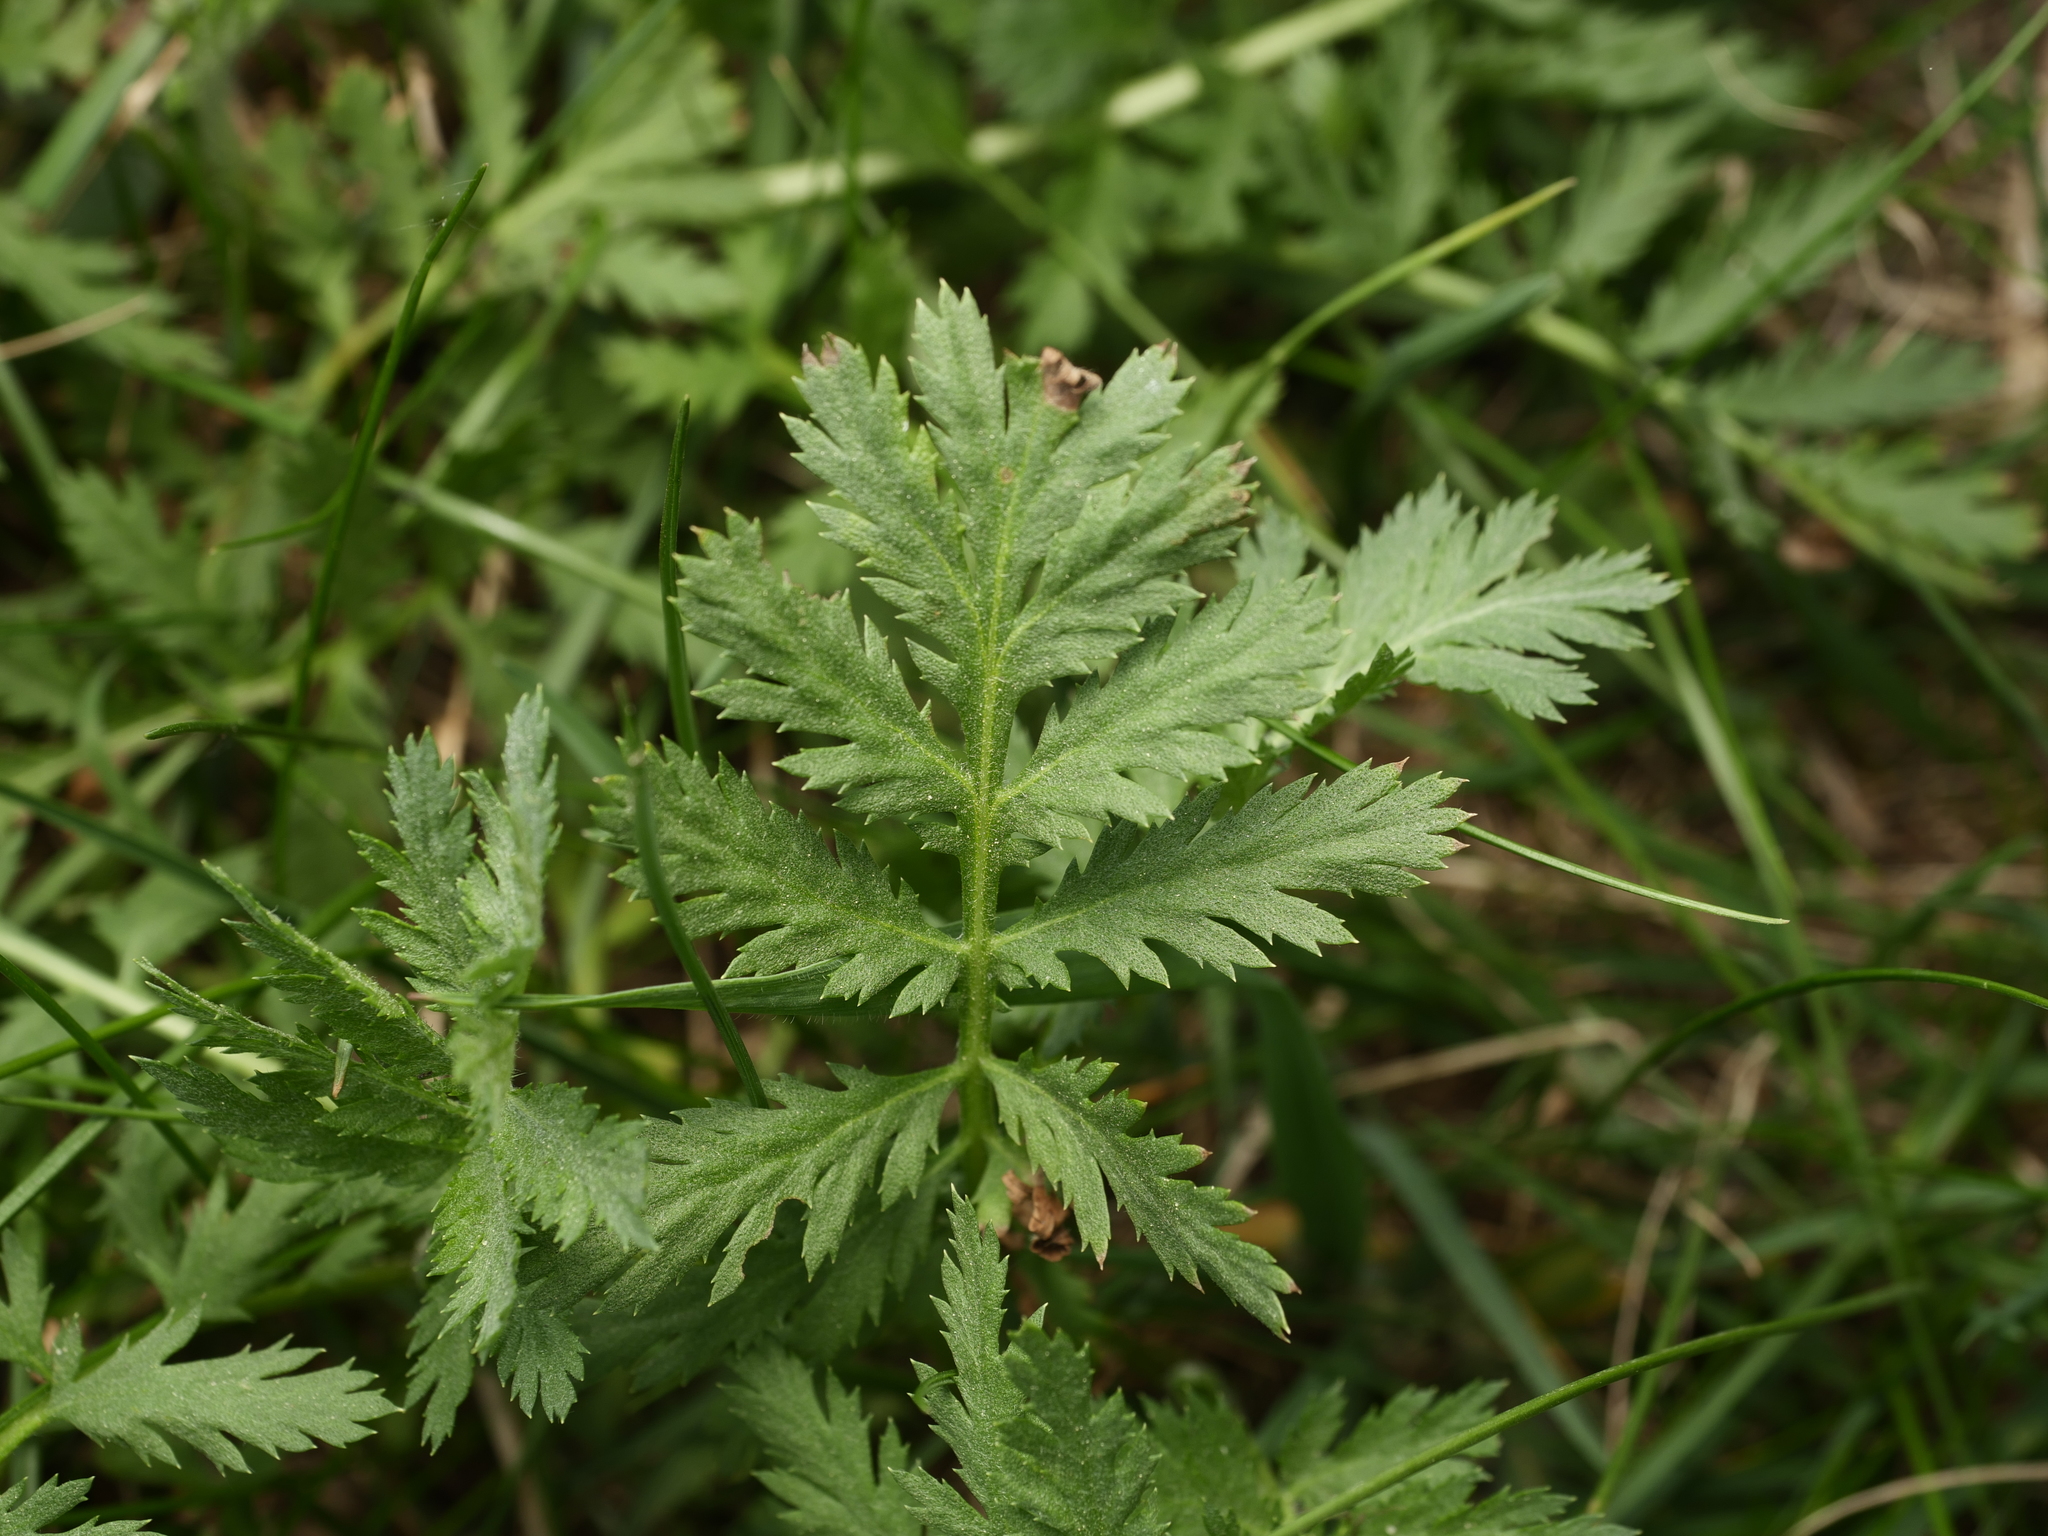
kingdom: Plantae
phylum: Tracheophyta
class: Magnoliopsida
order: Asterales
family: Asteraceae
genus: Tanacetum
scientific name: Tanacetum vulgare
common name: Common tansy
